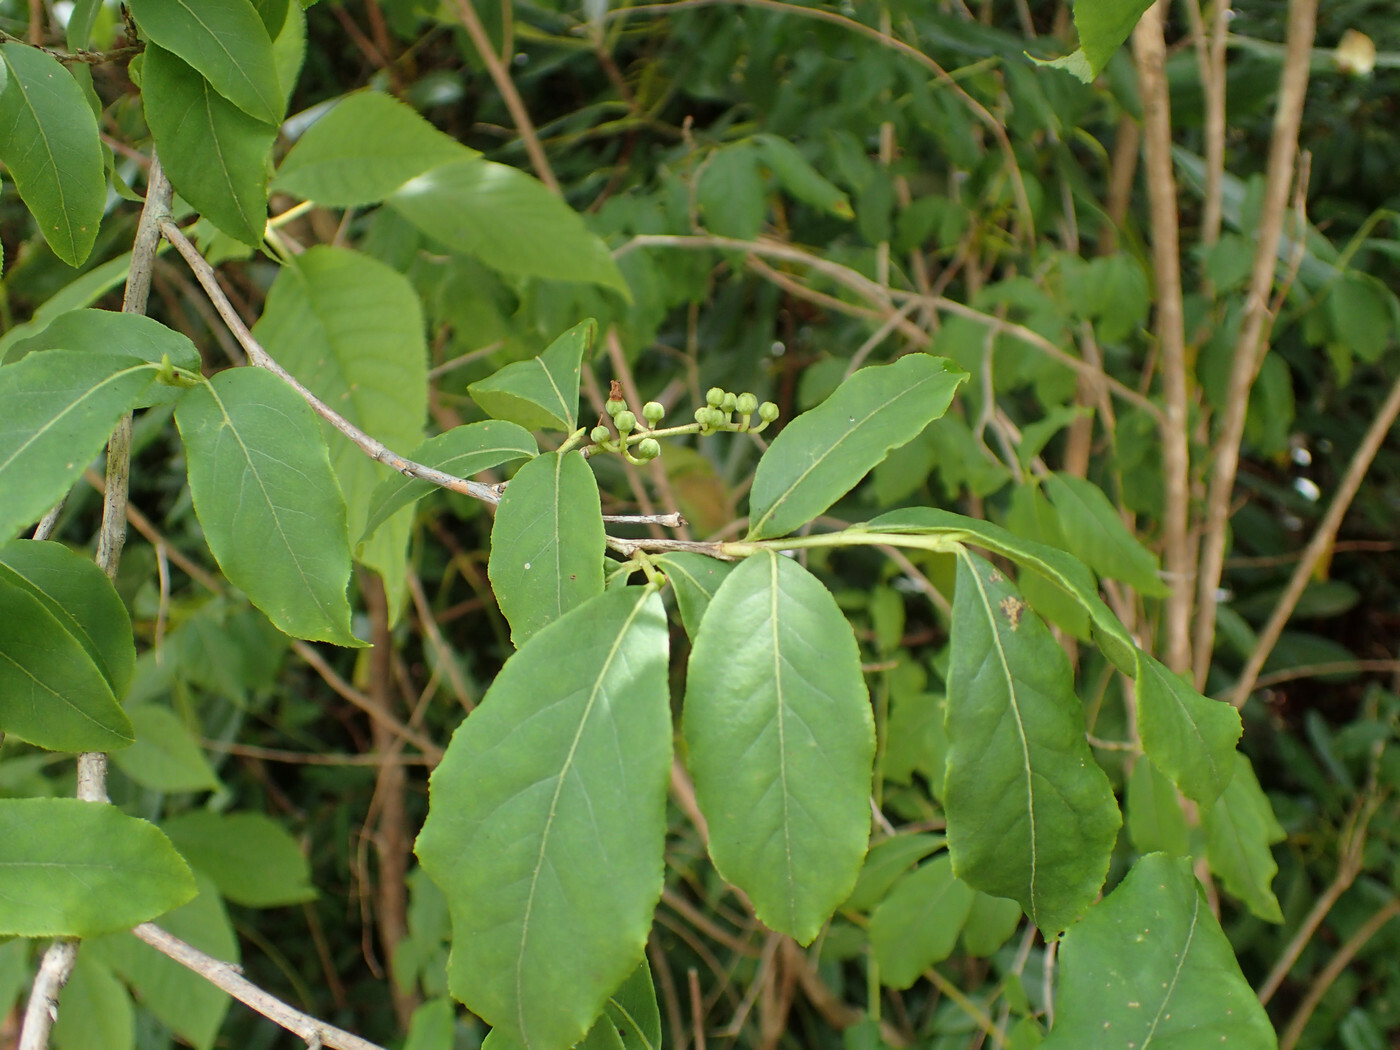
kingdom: Plantae
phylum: Tracheophyta
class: Magnoliopsida
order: Ericales
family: Ericaceae
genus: Lyonia
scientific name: Lyonia ligustrina
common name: Maleberry
